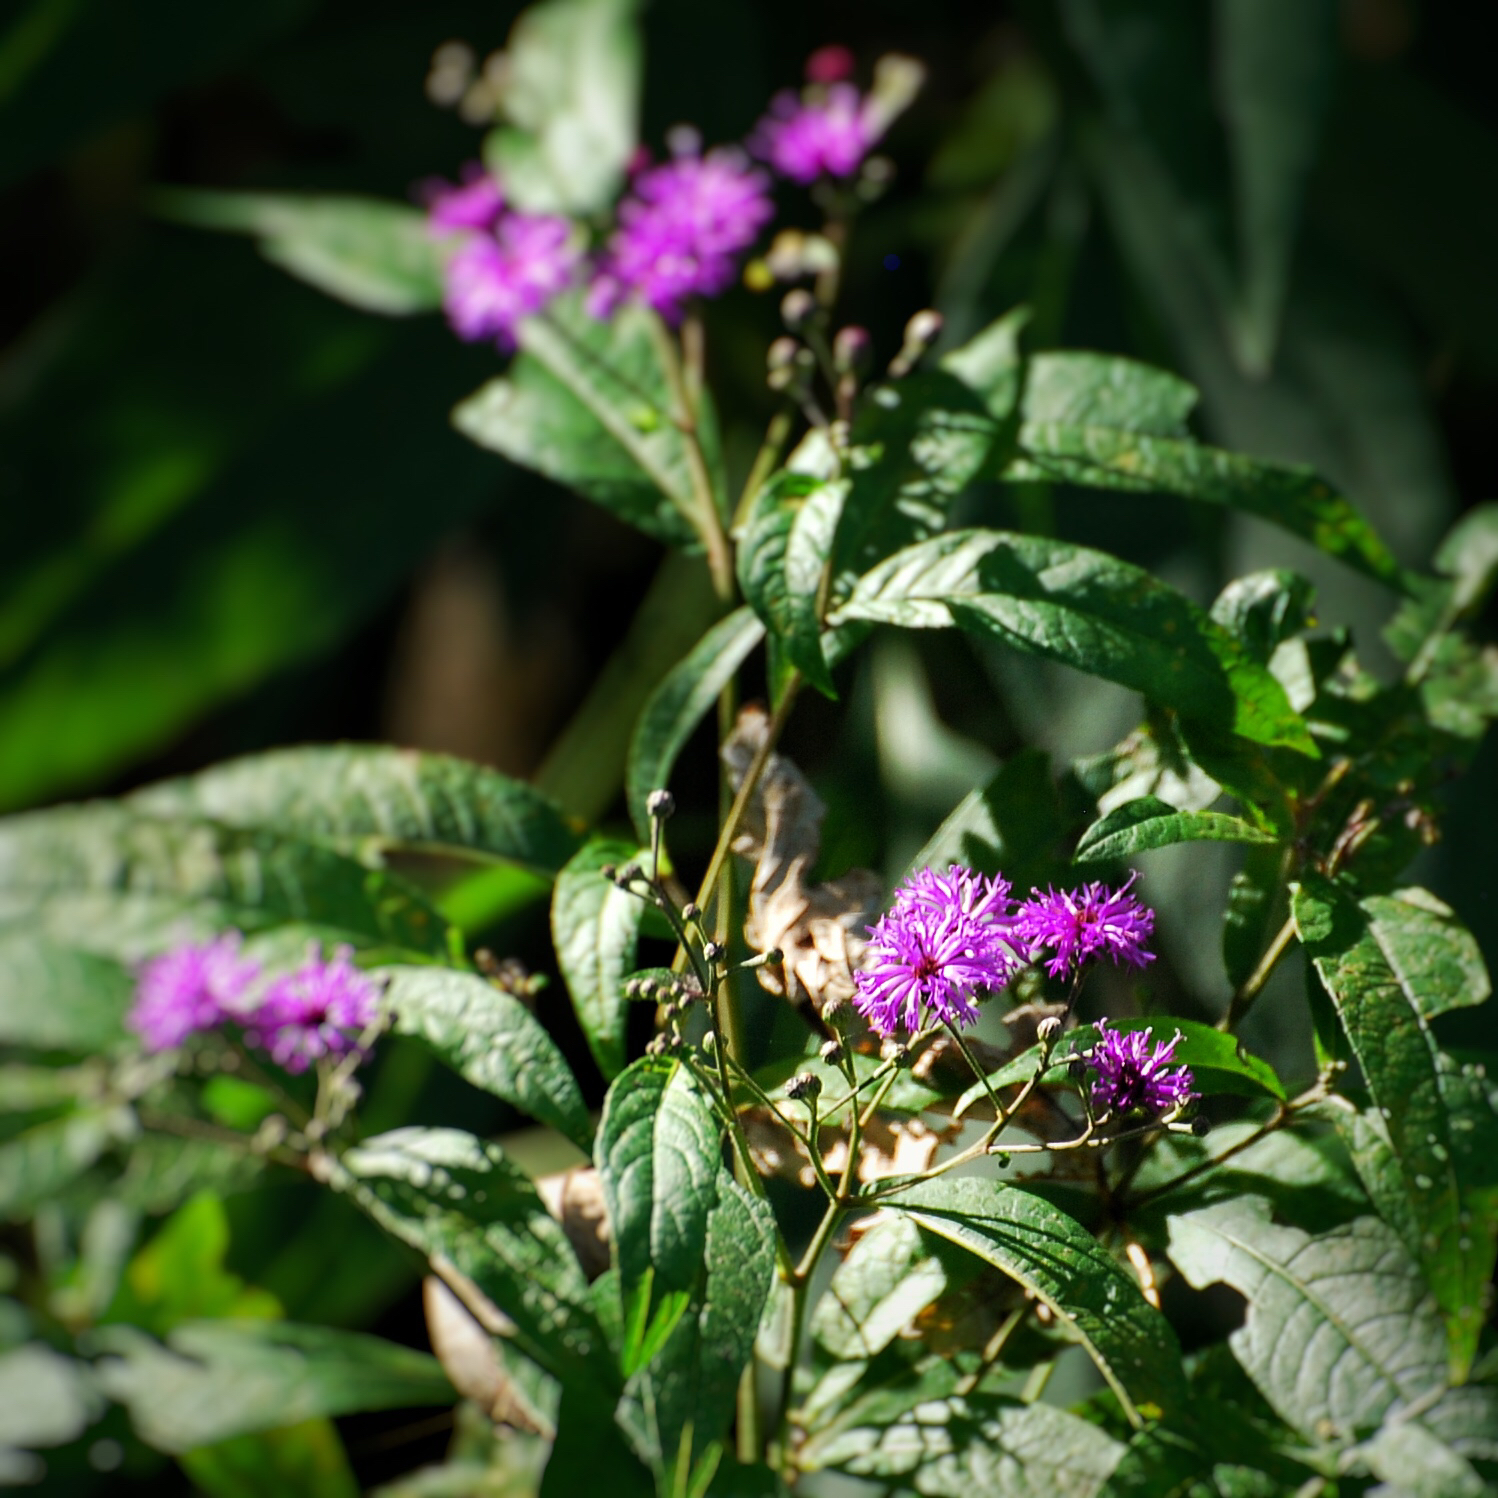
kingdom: Plantae
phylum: Tracheophyta
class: Magnoliopsida
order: Asterales
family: Asteraceae
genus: Vernonia
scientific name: Vernonia fasciculata
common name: Fascicled ironweed
